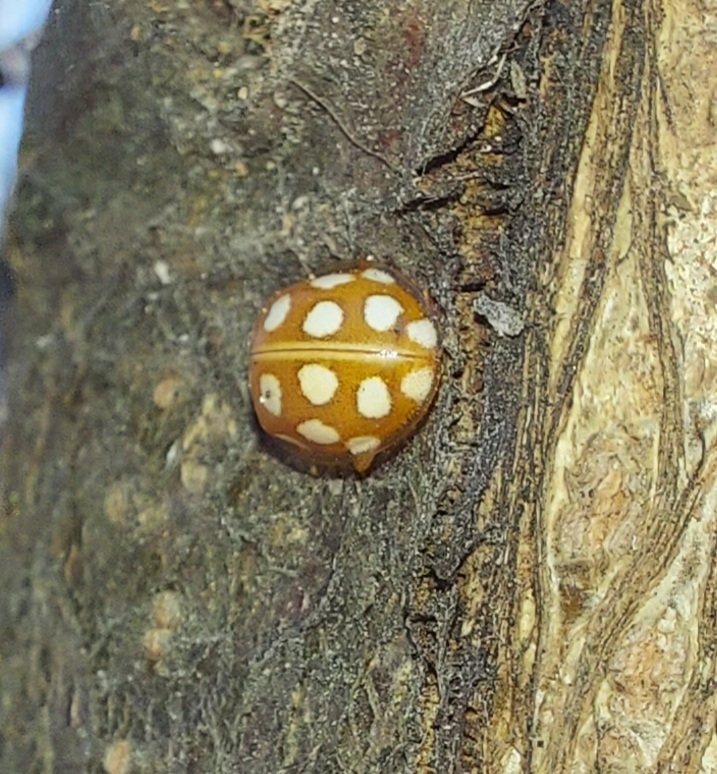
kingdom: Animalia
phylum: Arthropoda
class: Insecta
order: Coleoptera
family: Coccinellidae
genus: Halyzia
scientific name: Halyzia sedecimguttata
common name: Orange ladybird
